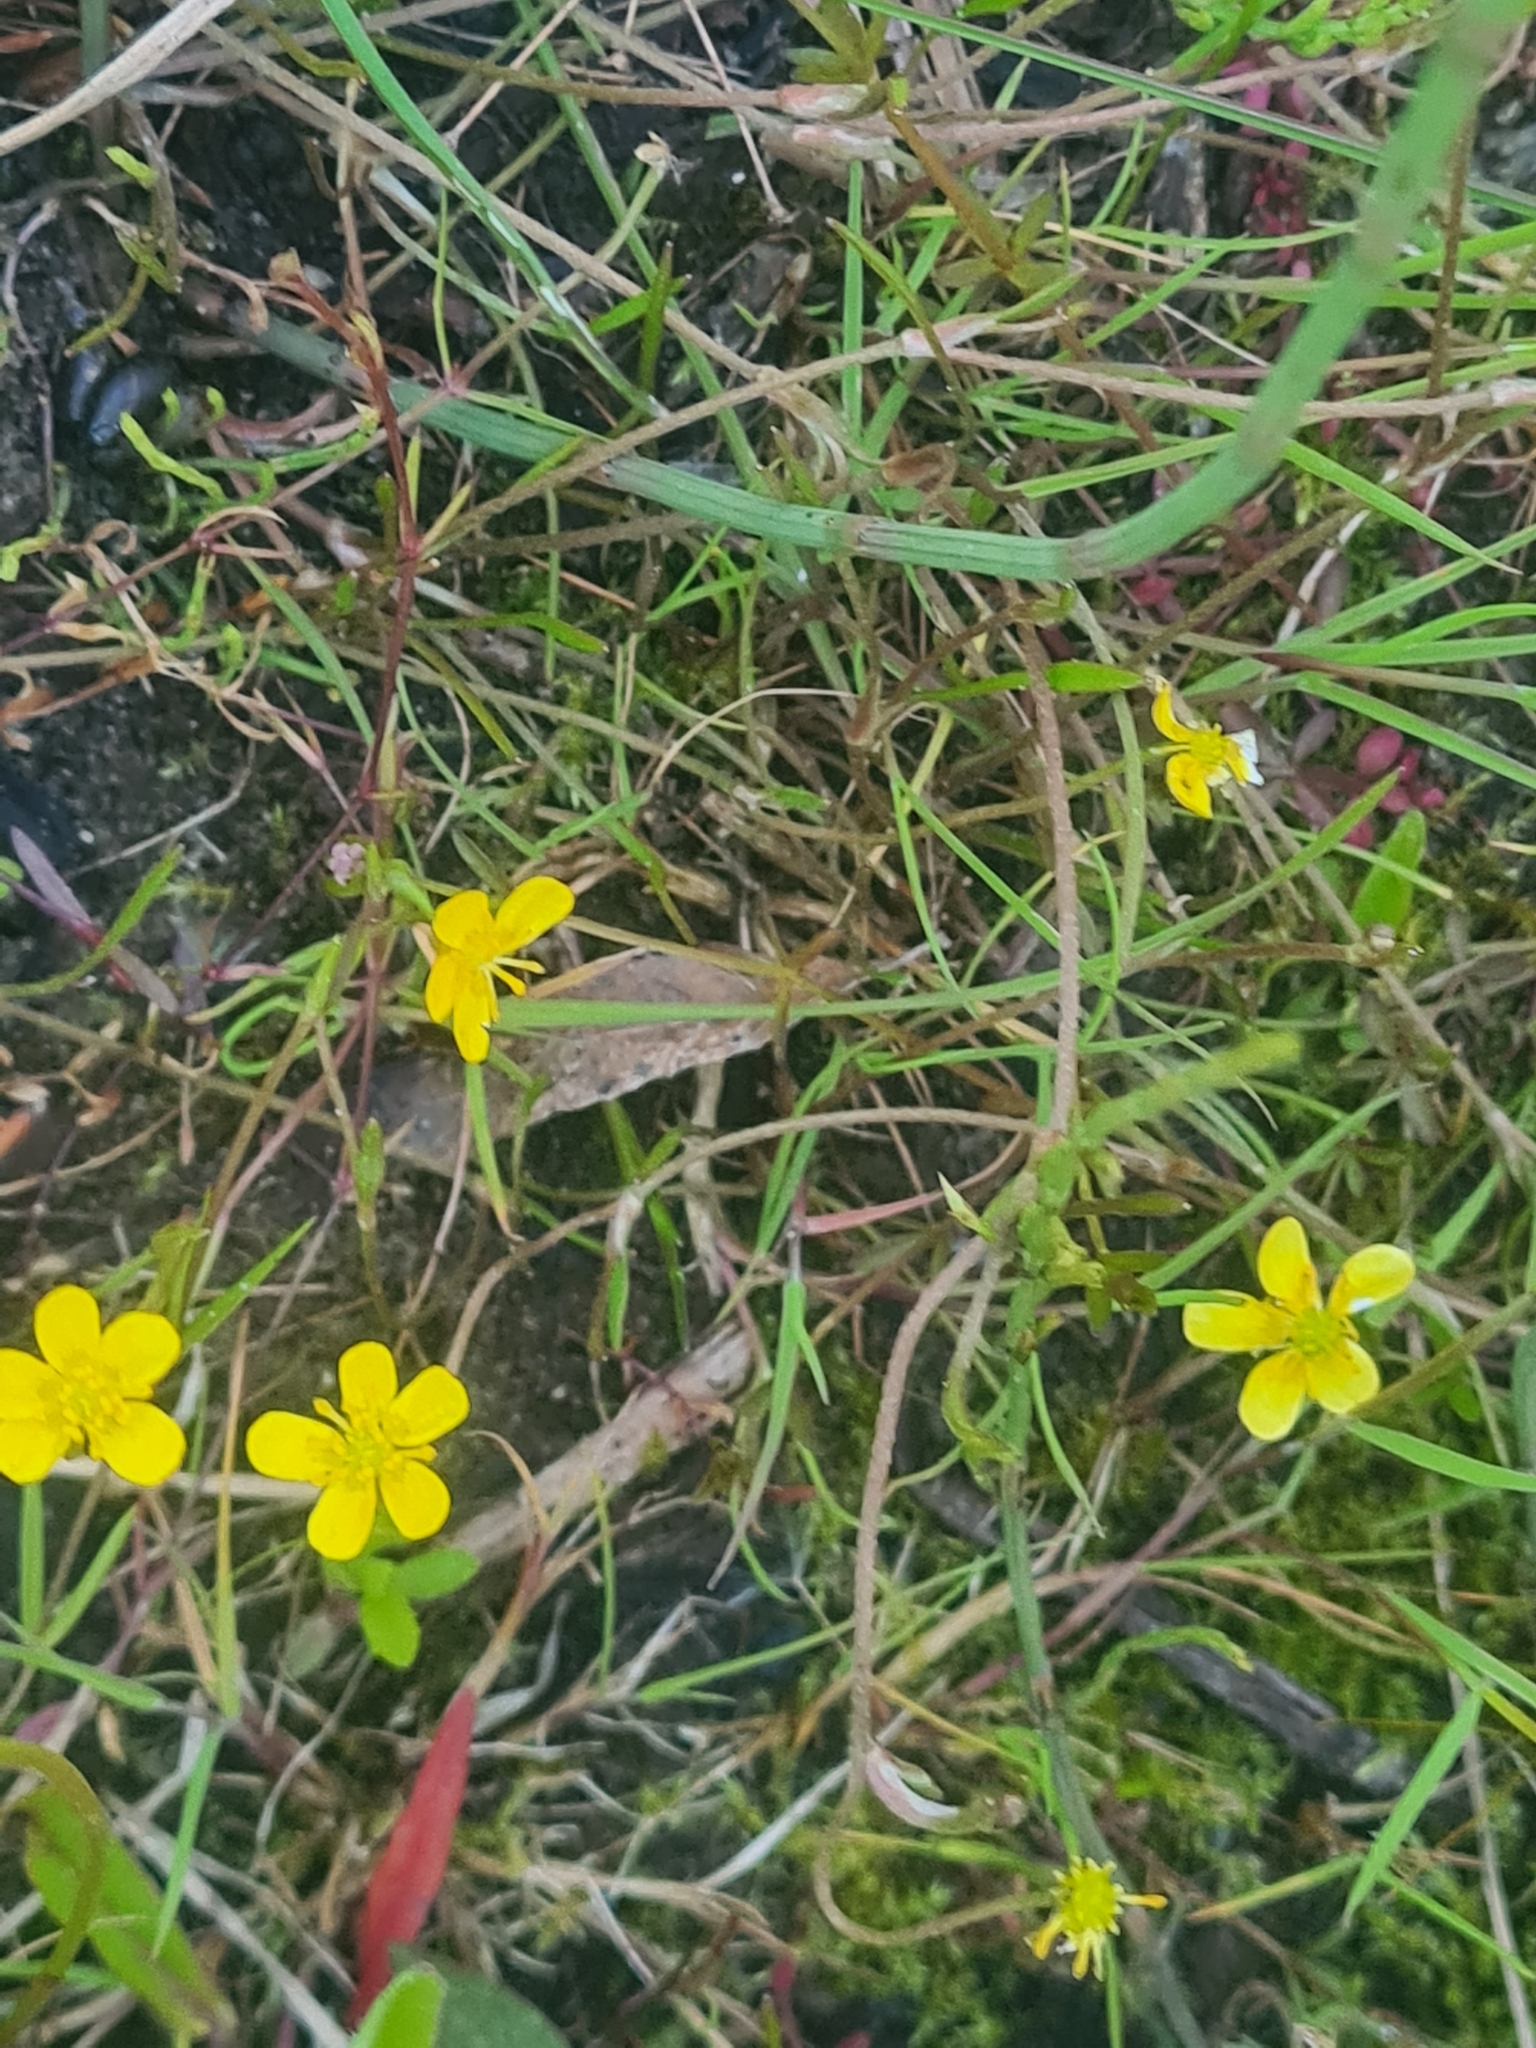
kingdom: Plantae
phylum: Tracheophyta
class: Magnoliopsida
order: Ranunculales
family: Ranunculaceae
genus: Ranunculus
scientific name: Ranunculus reptans
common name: Creeping spearwort
